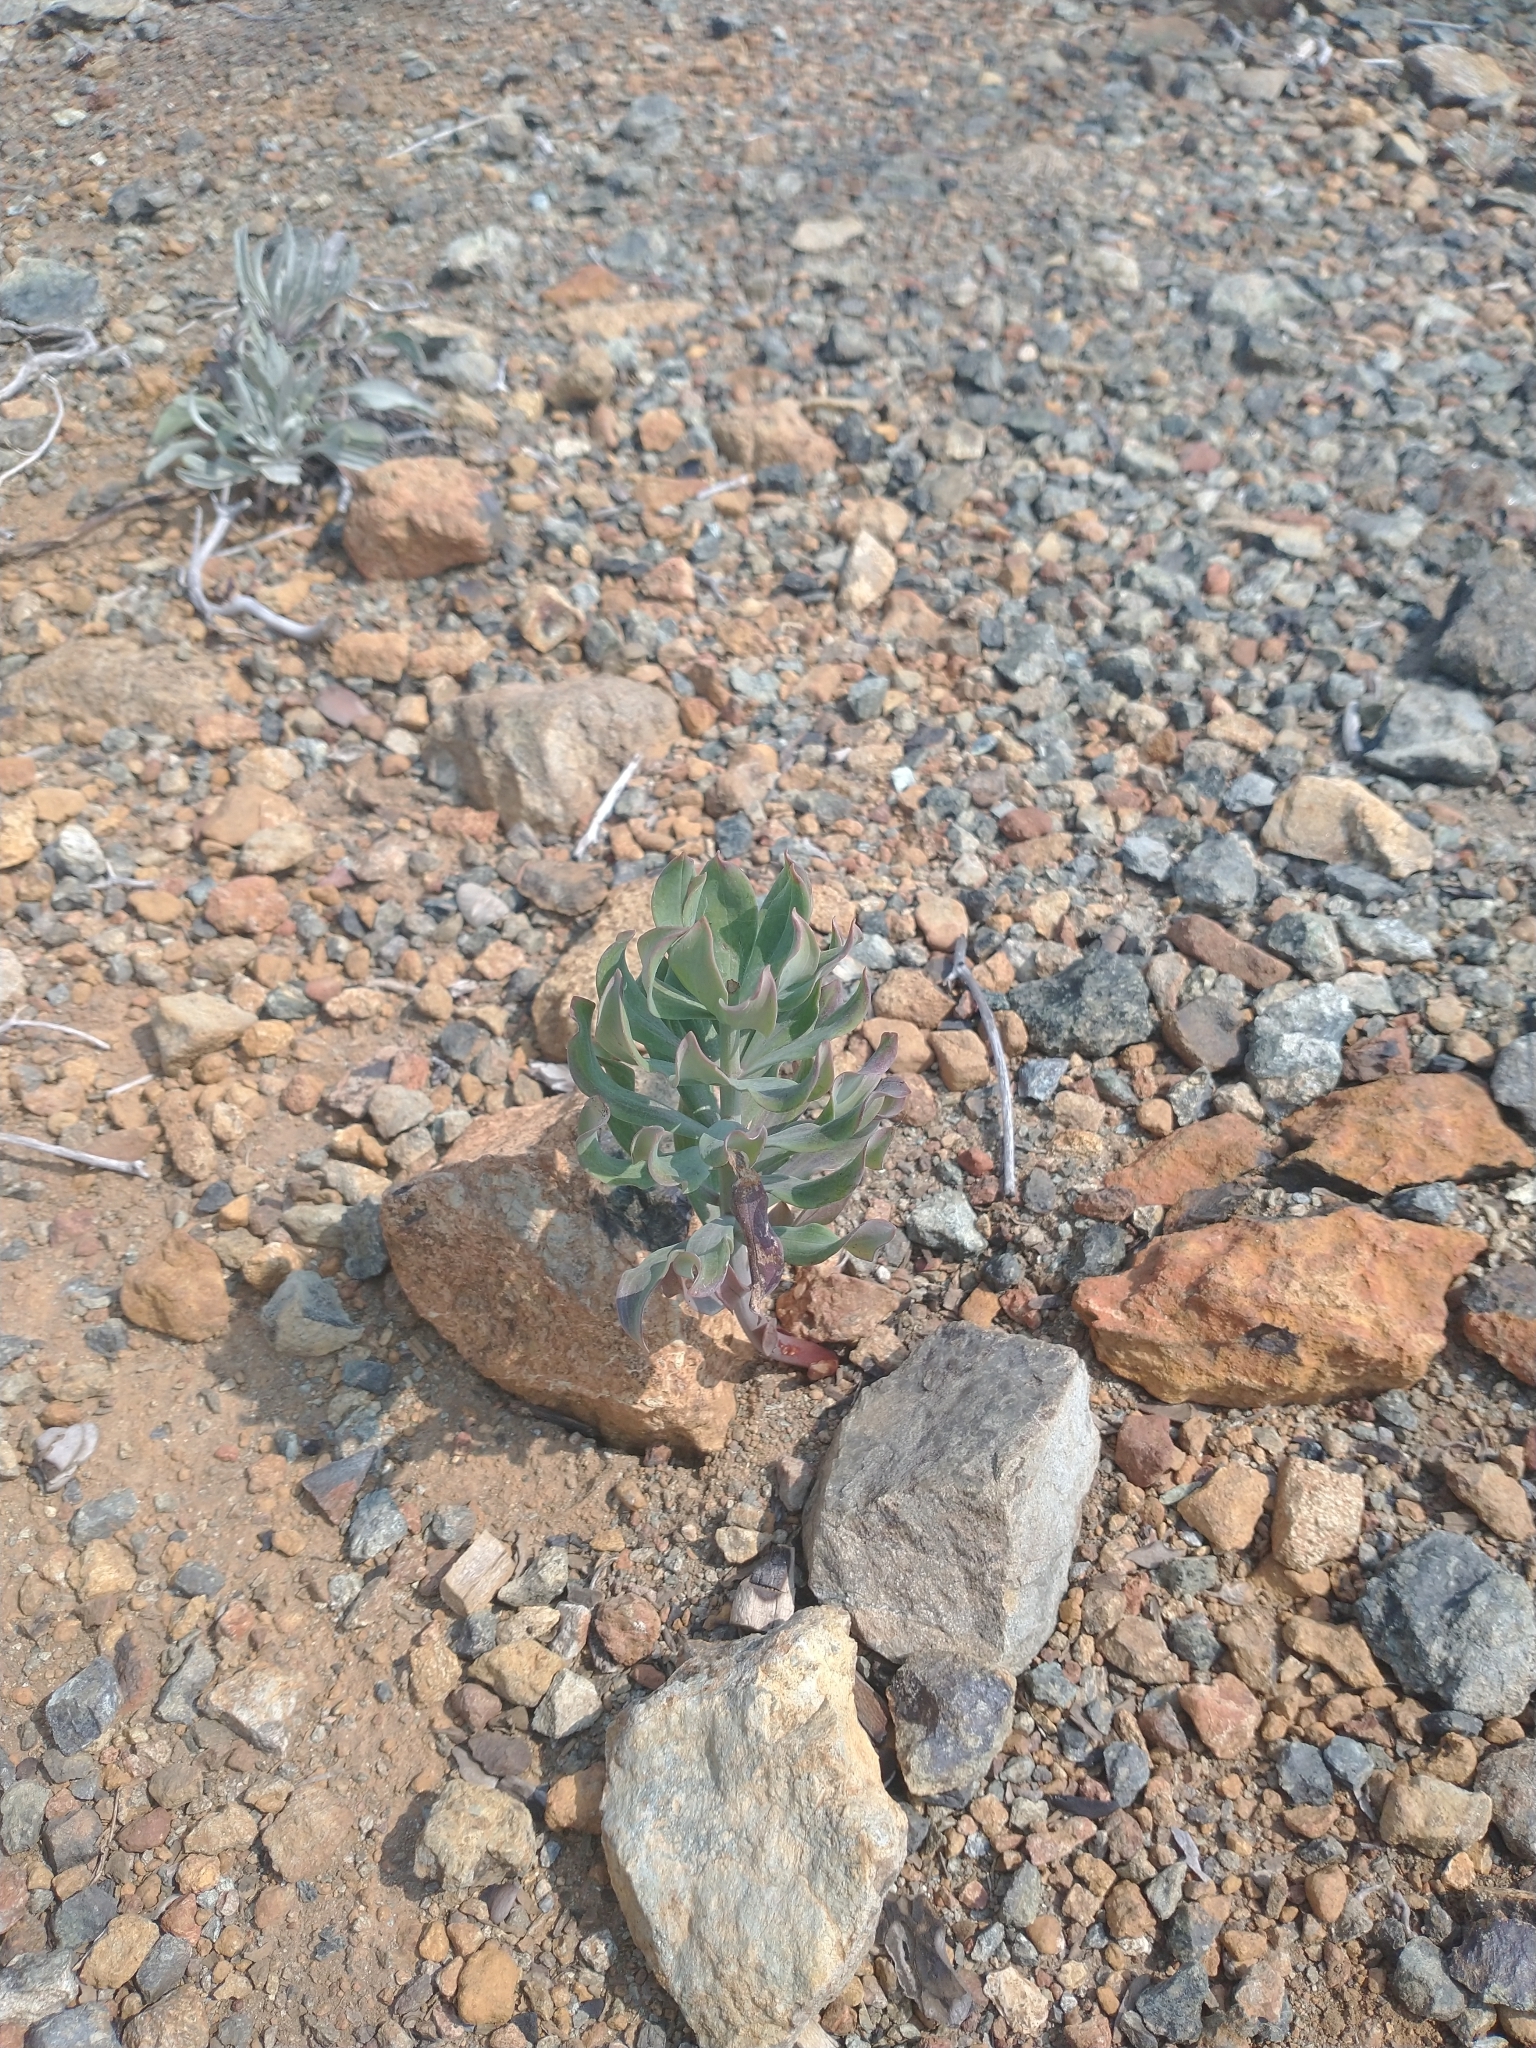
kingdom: Plantae
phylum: Tracheophyta
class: Liliopsida
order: Liliales
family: Liliaceae
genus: Lilium
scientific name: Lilium bolanderi
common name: Bolander's lily
